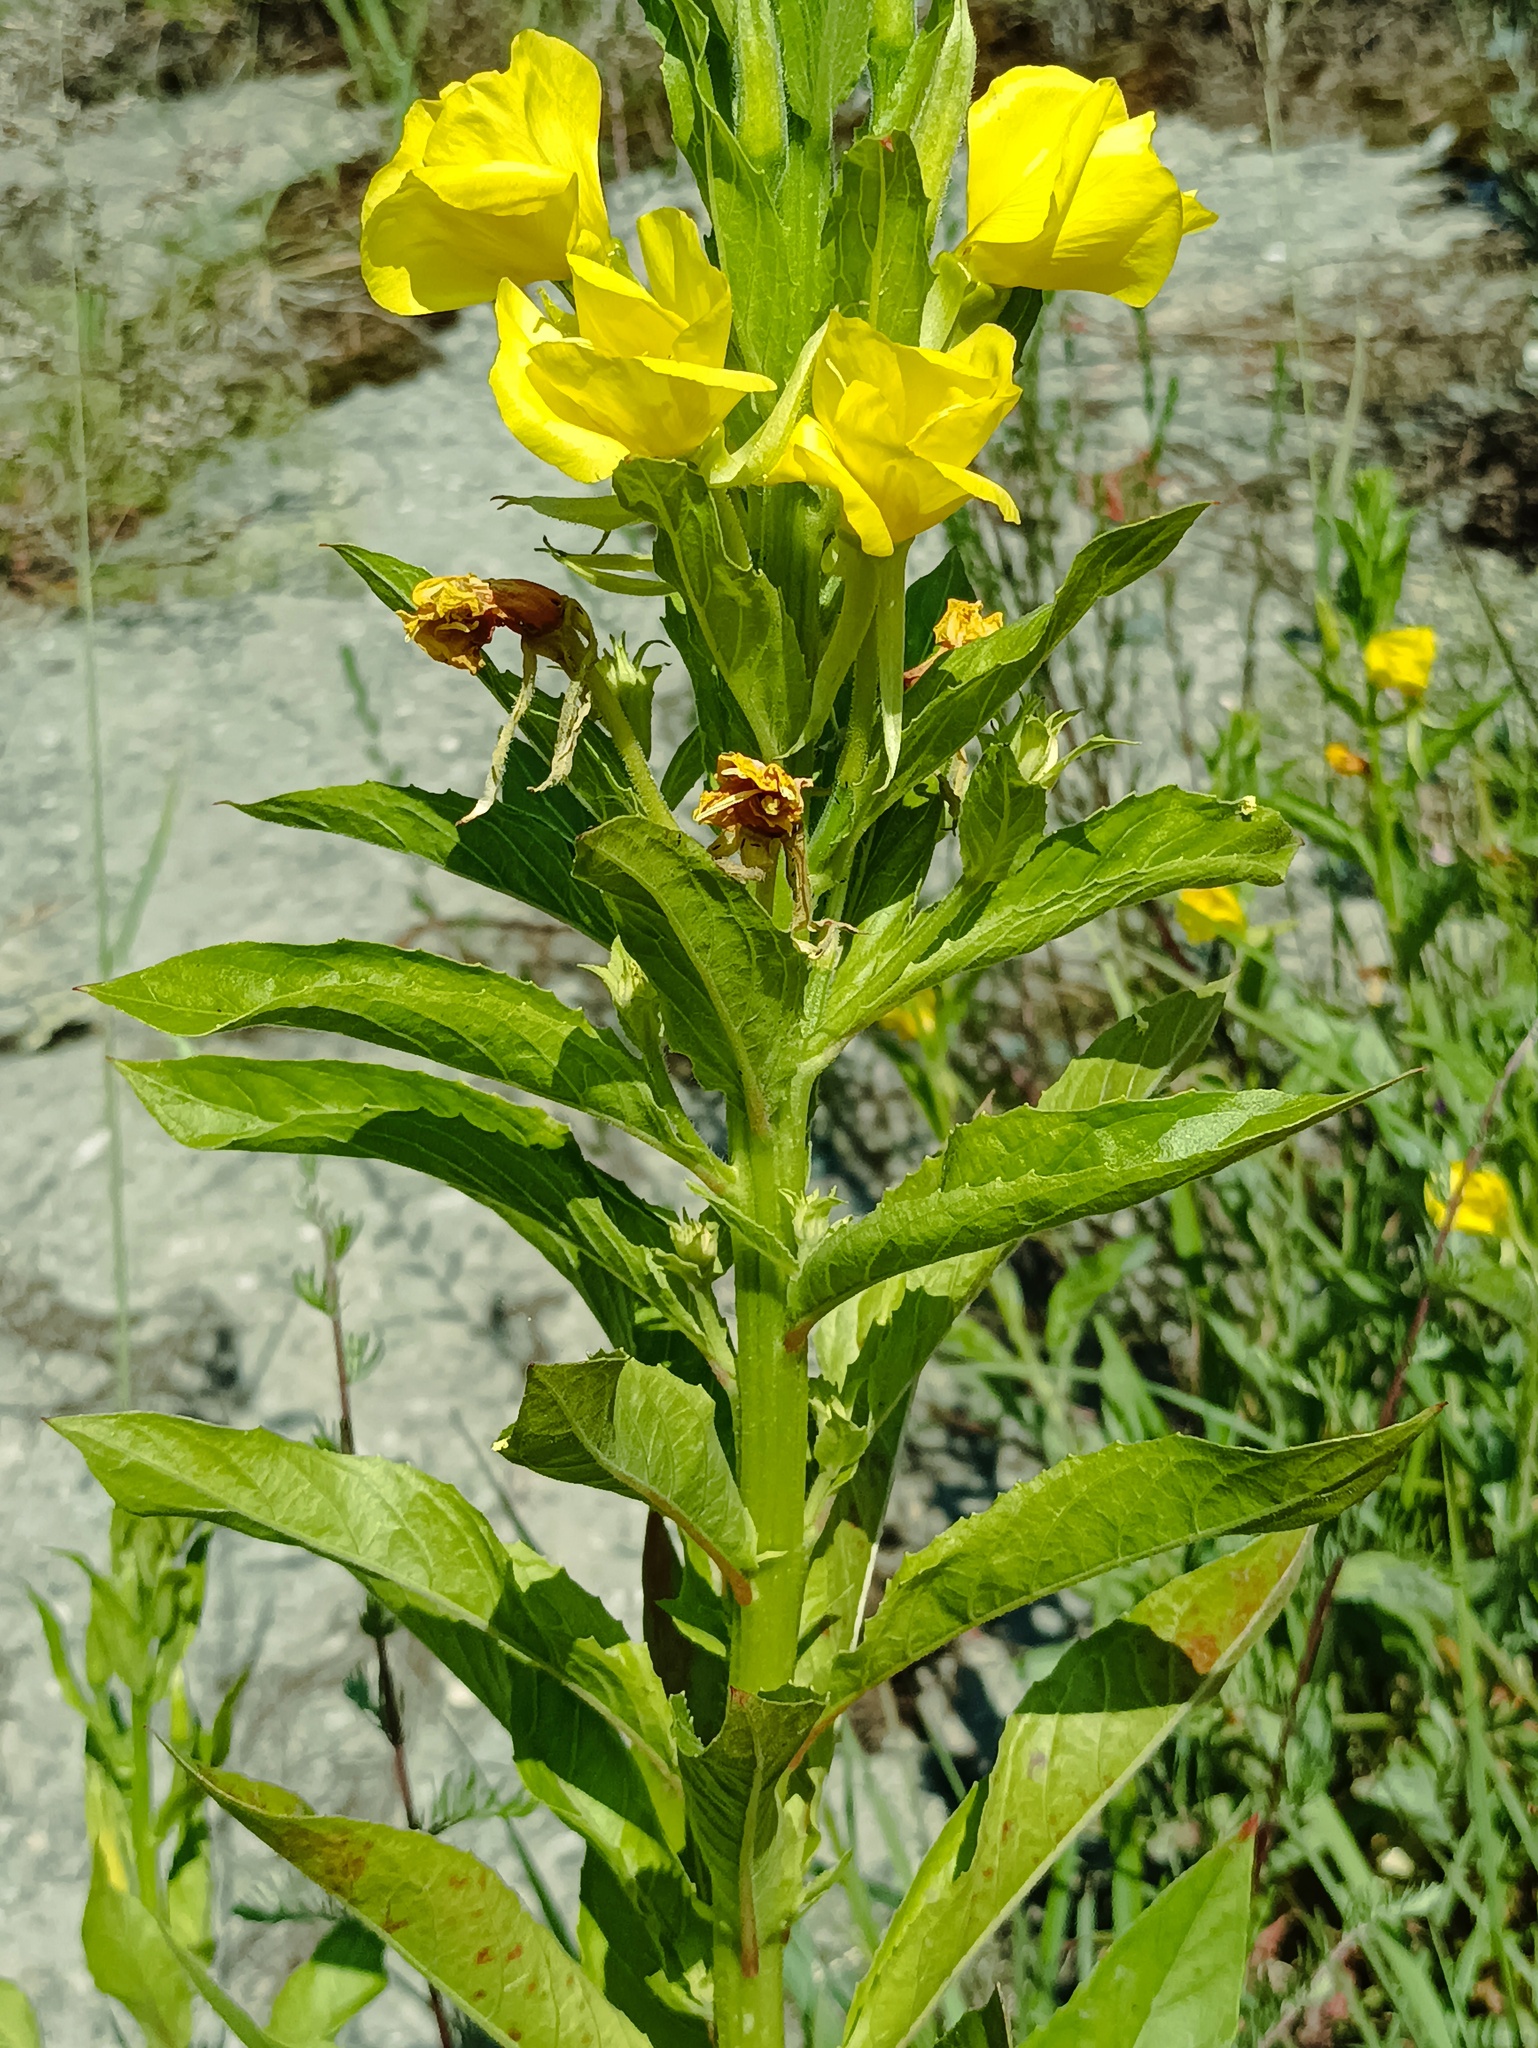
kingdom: Plantae
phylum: Tracheophyta
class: Magnoliopsida
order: Myrtales
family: Onagraceae
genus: Oenothera
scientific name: Oenothera biennis
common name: Common evening-primrose
